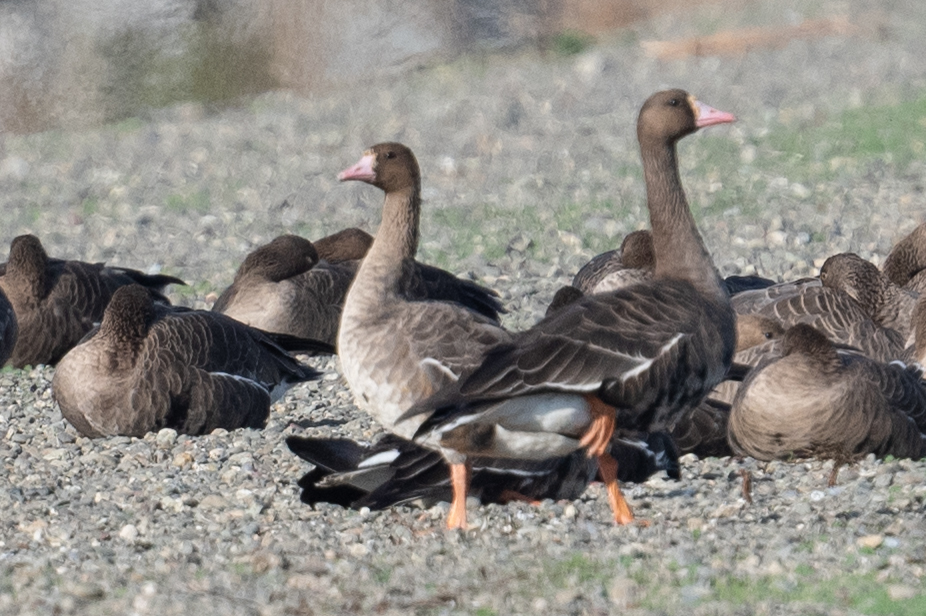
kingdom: Animalia
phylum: Chordata
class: Aves
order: Anseriformes
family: Anatidae
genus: Anser
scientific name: Anser albifrons
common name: Greater white-fronted goose
